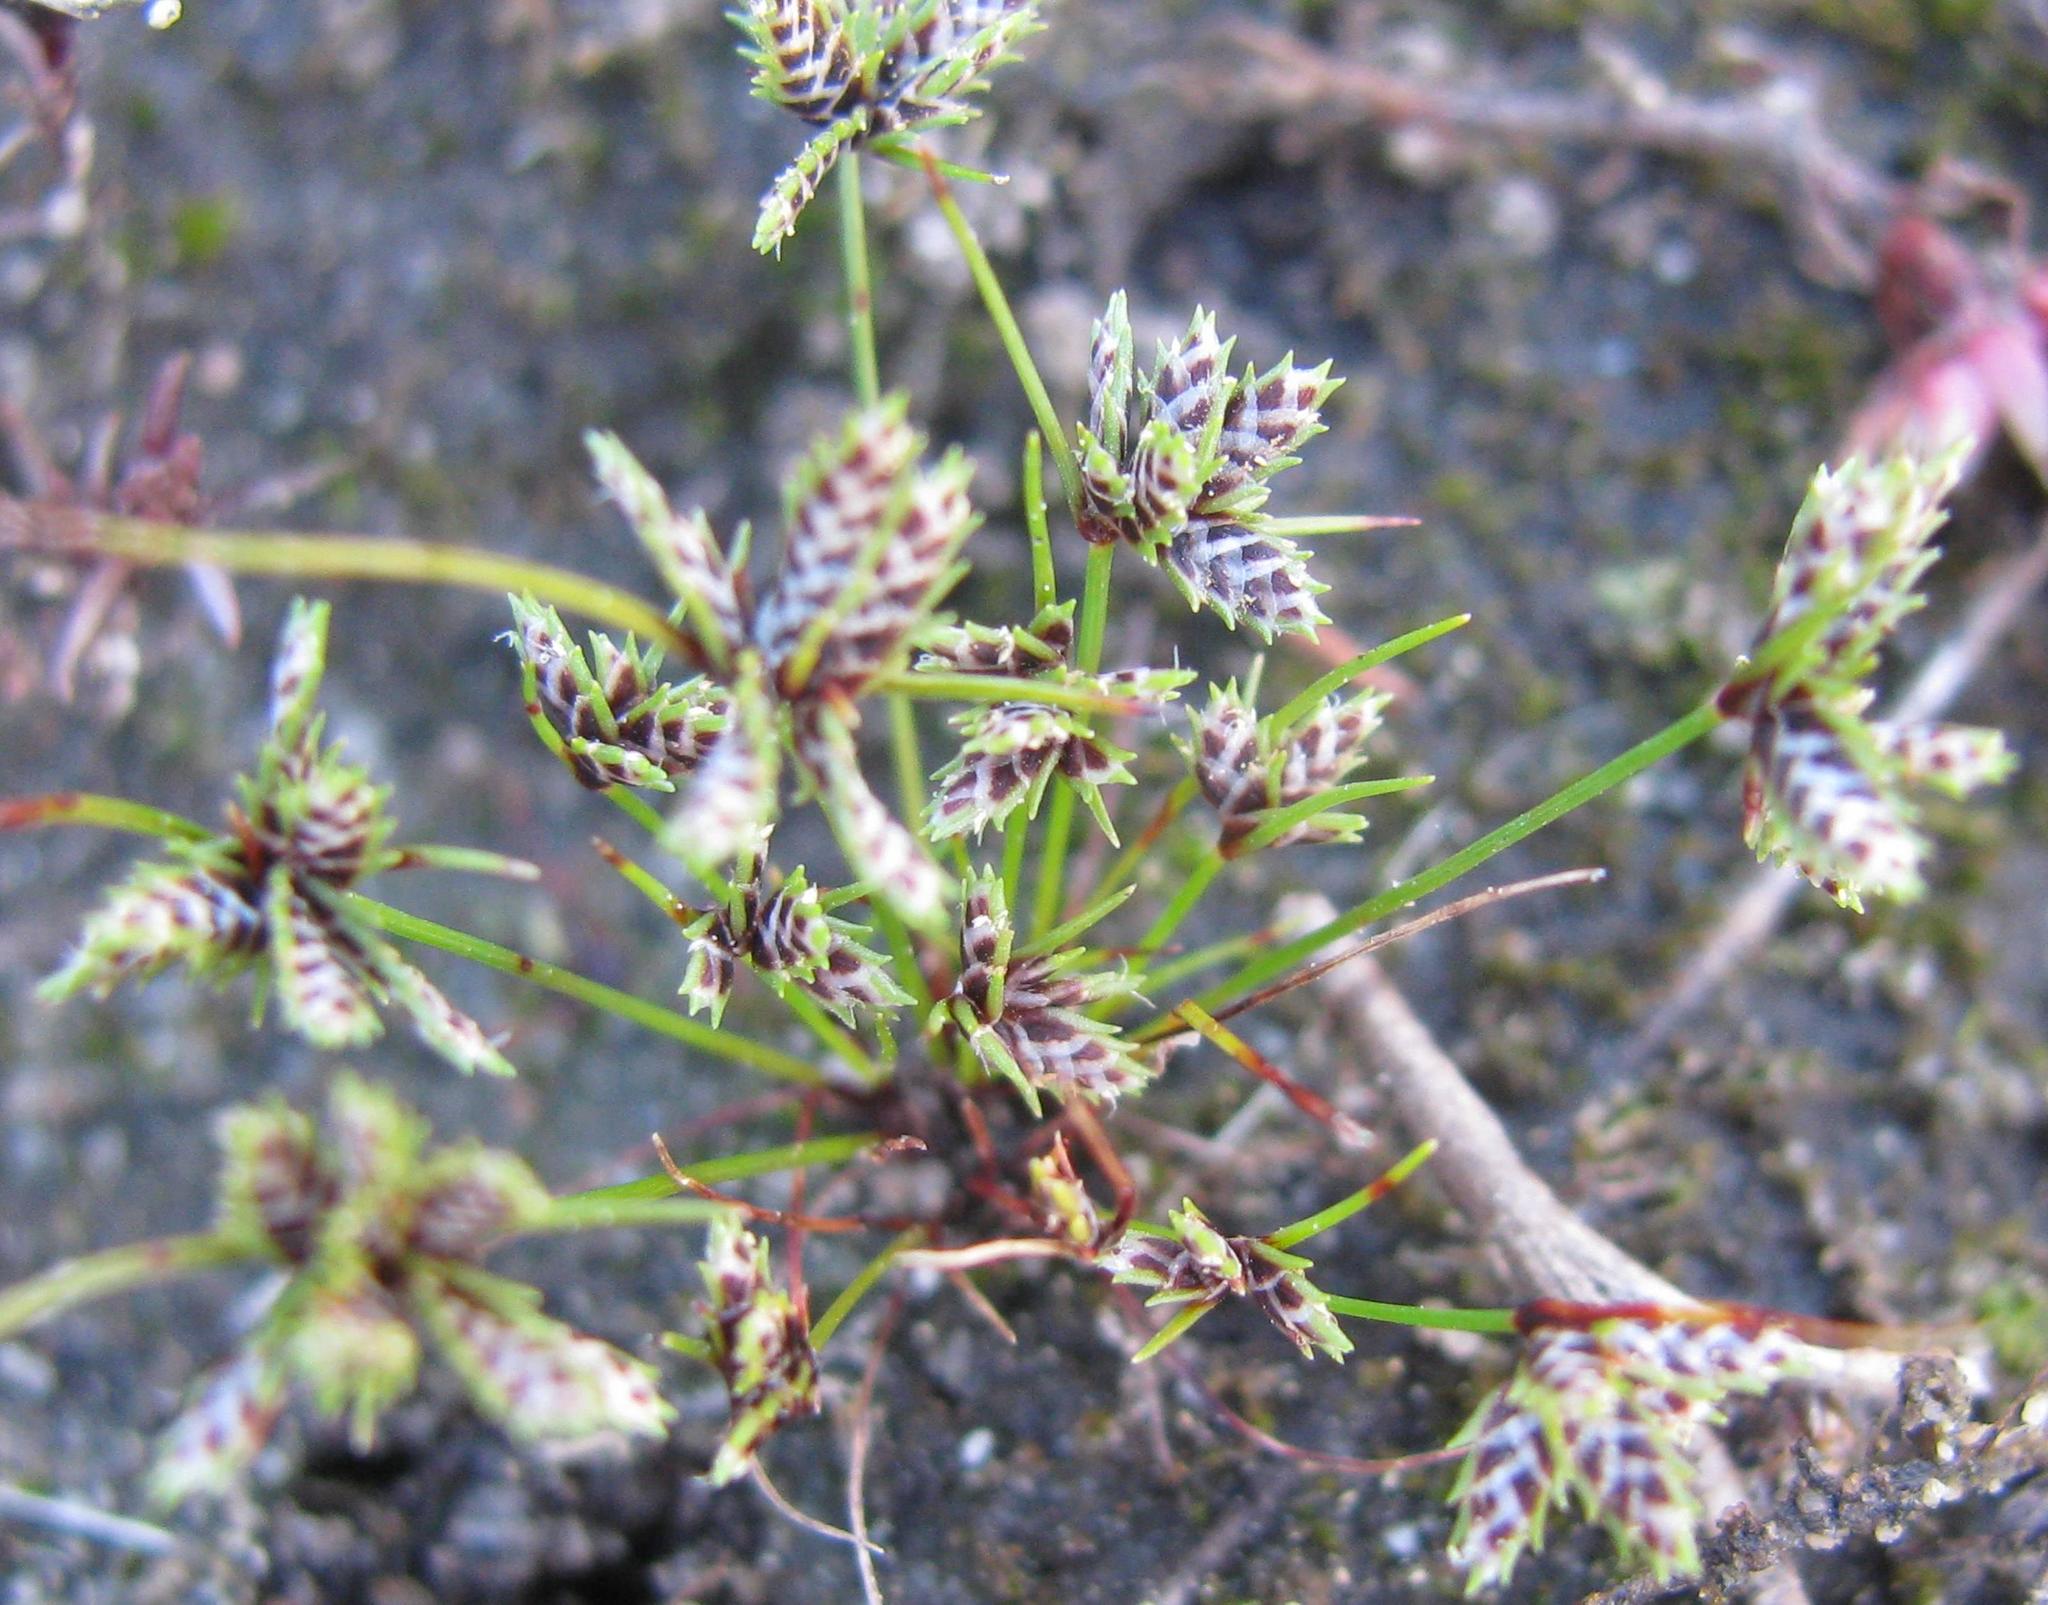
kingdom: Plantae
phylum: Tracheophyta
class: Liliopsida
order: Poales
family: Cyperaceae
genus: Ficinia
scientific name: Ficinia leucoloma
